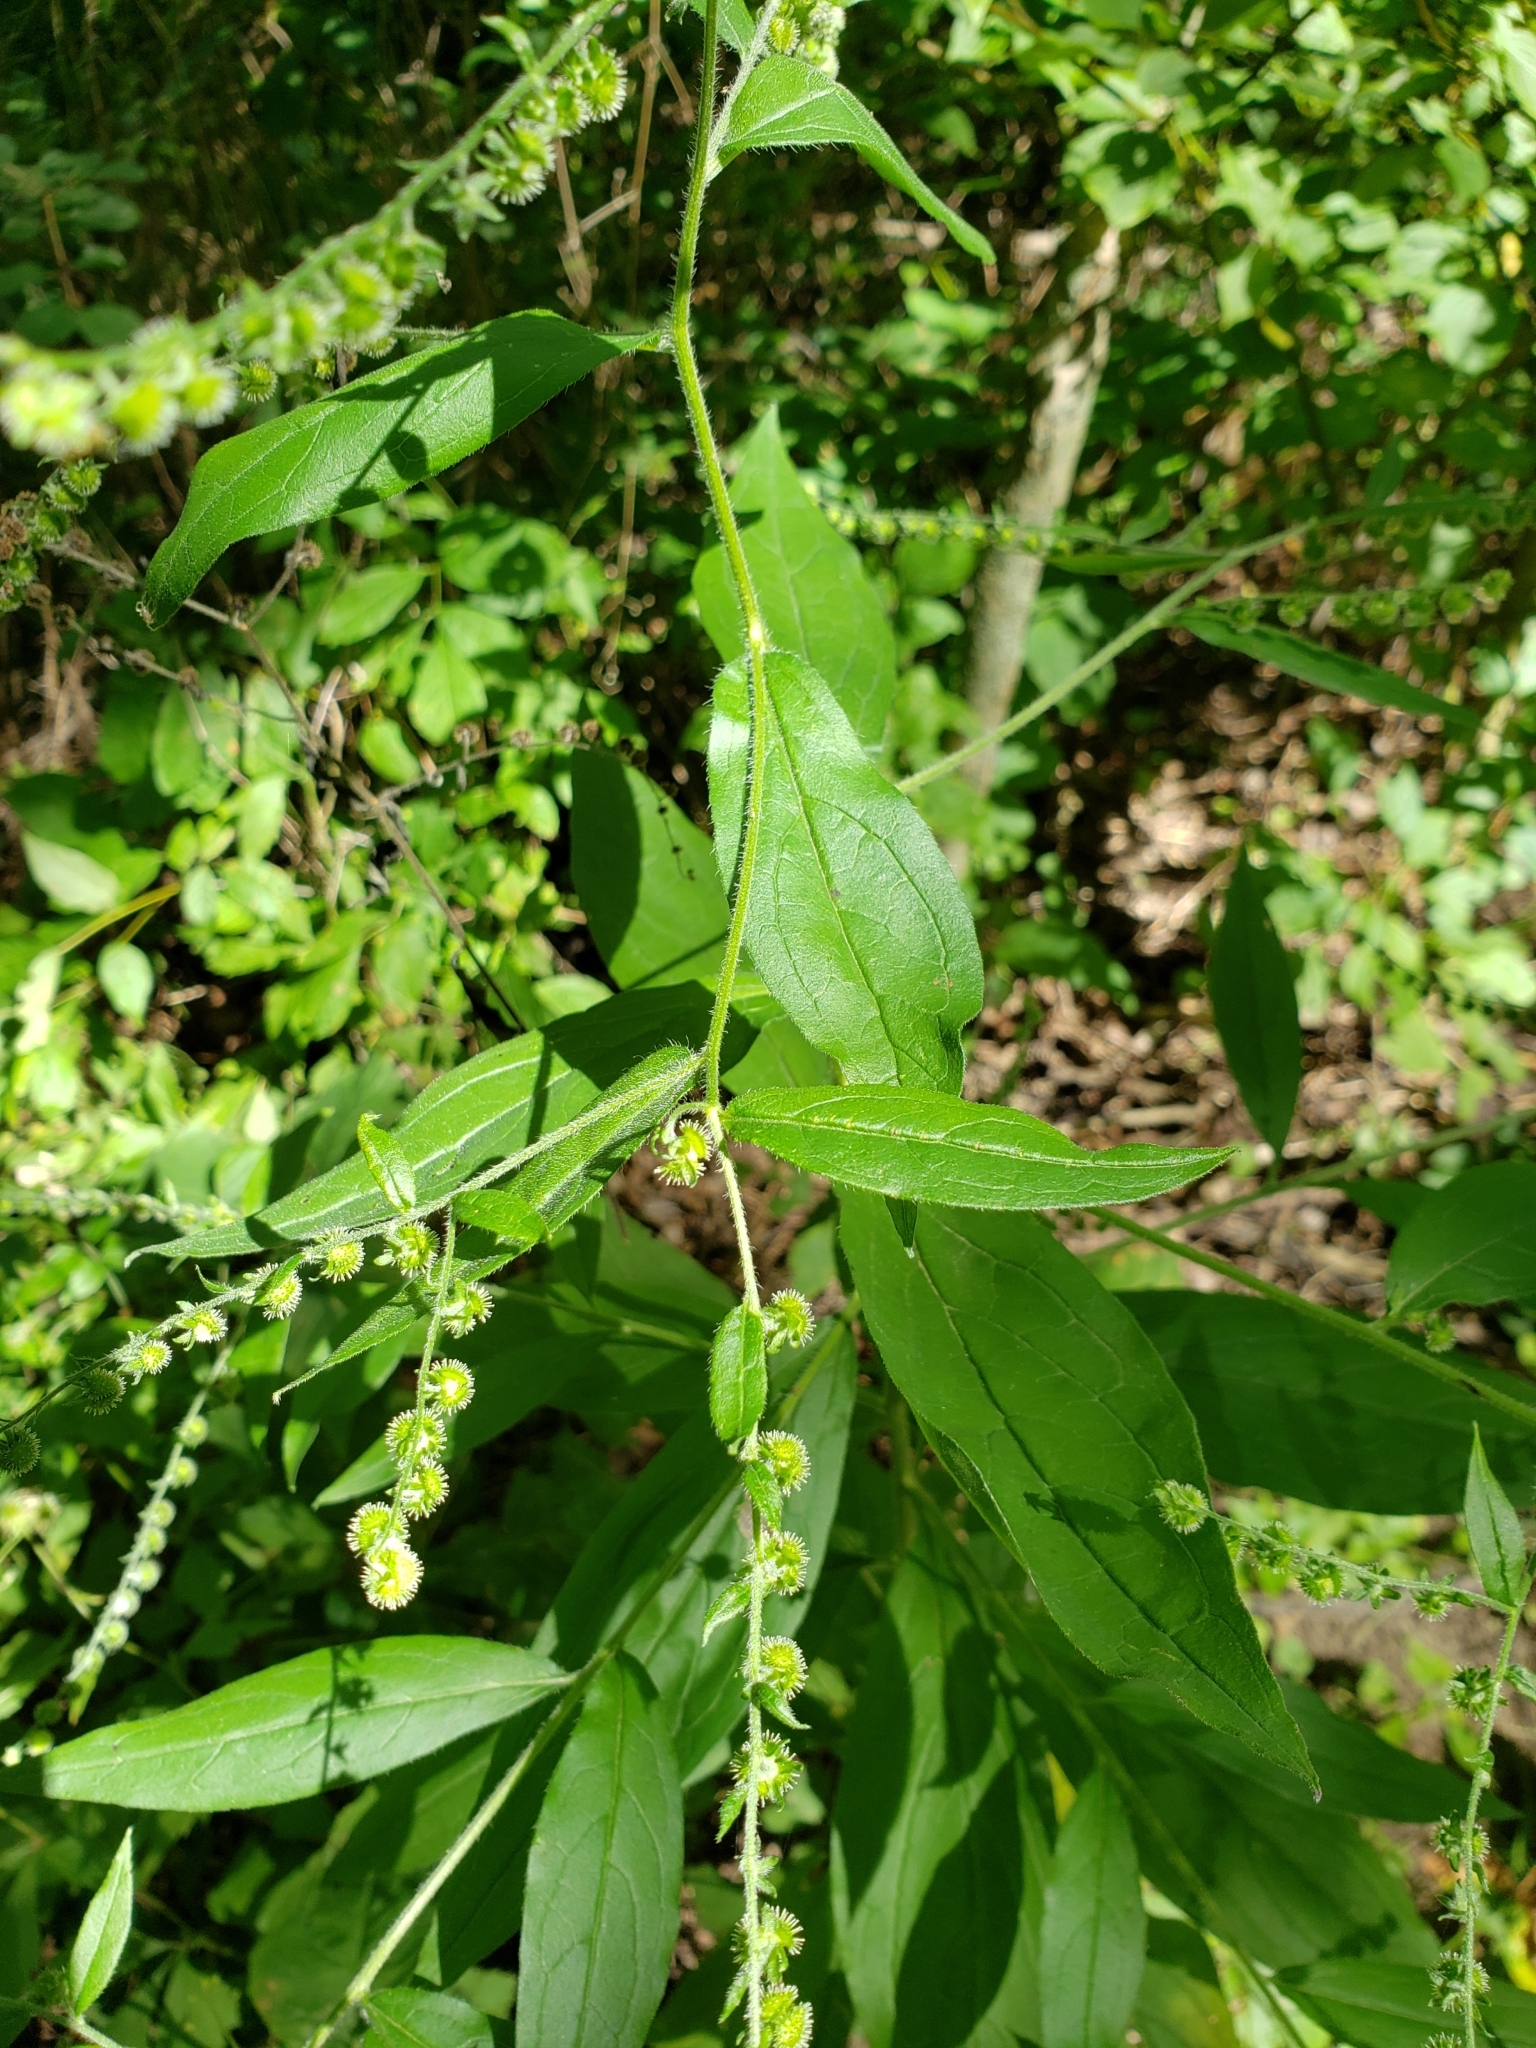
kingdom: Plantae
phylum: Tracheophyta
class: Magnoliopsida
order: Boraginales
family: Boraginaceae
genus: Hackelia
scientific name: Hackelia virginiana
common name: Beggar's-lice
